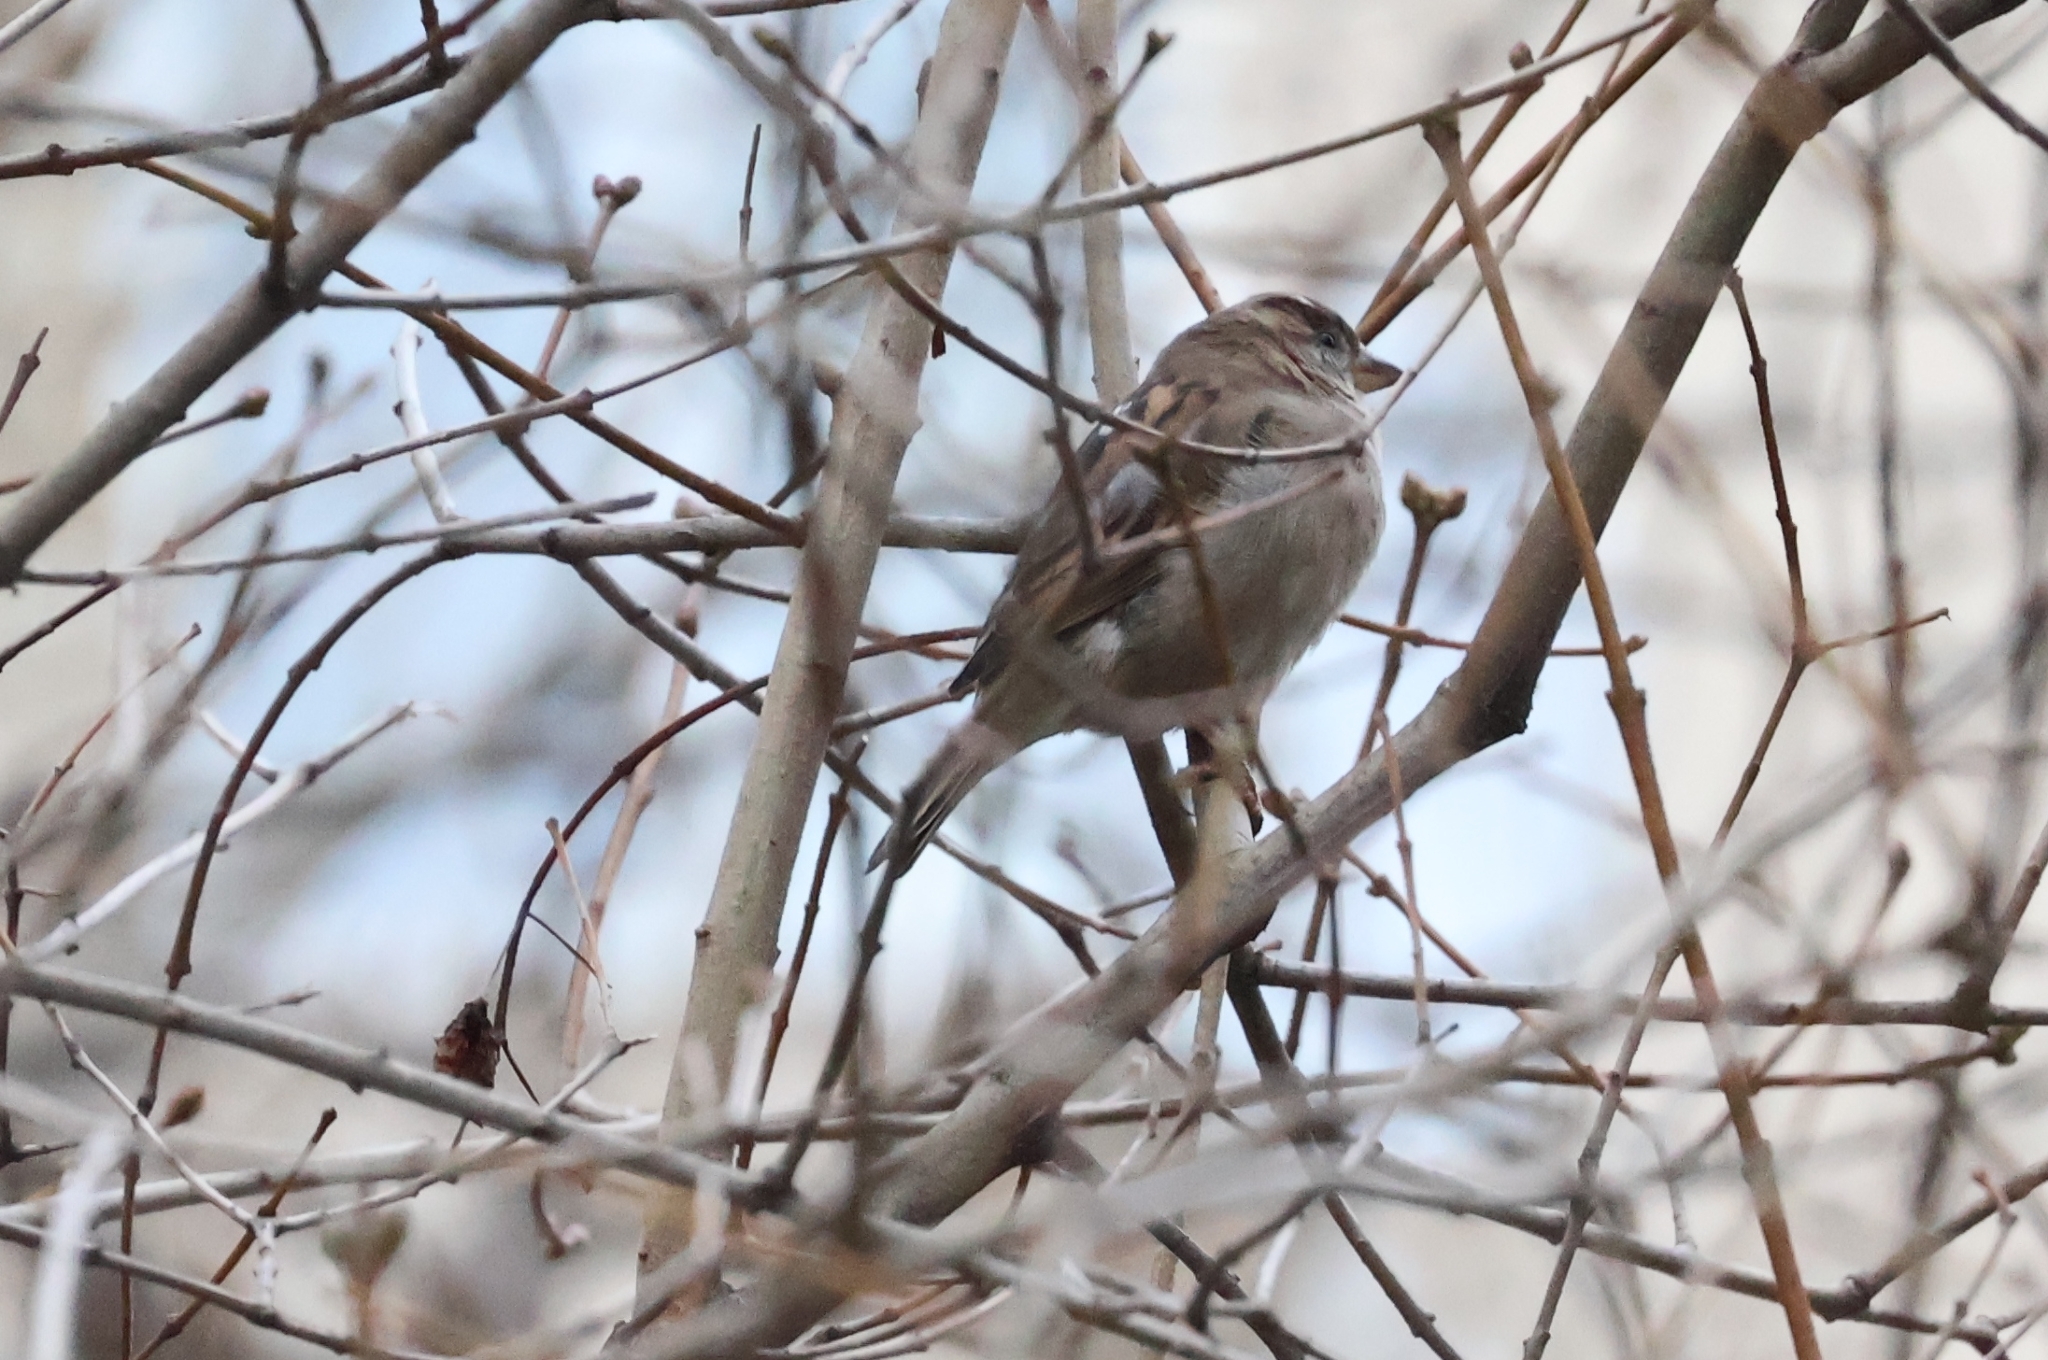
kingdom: Animalia
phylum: Chordata
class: Aves
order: Passeriformes
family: Passeridae
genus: Passer
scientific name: Passer domesticus
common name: House sparrow
